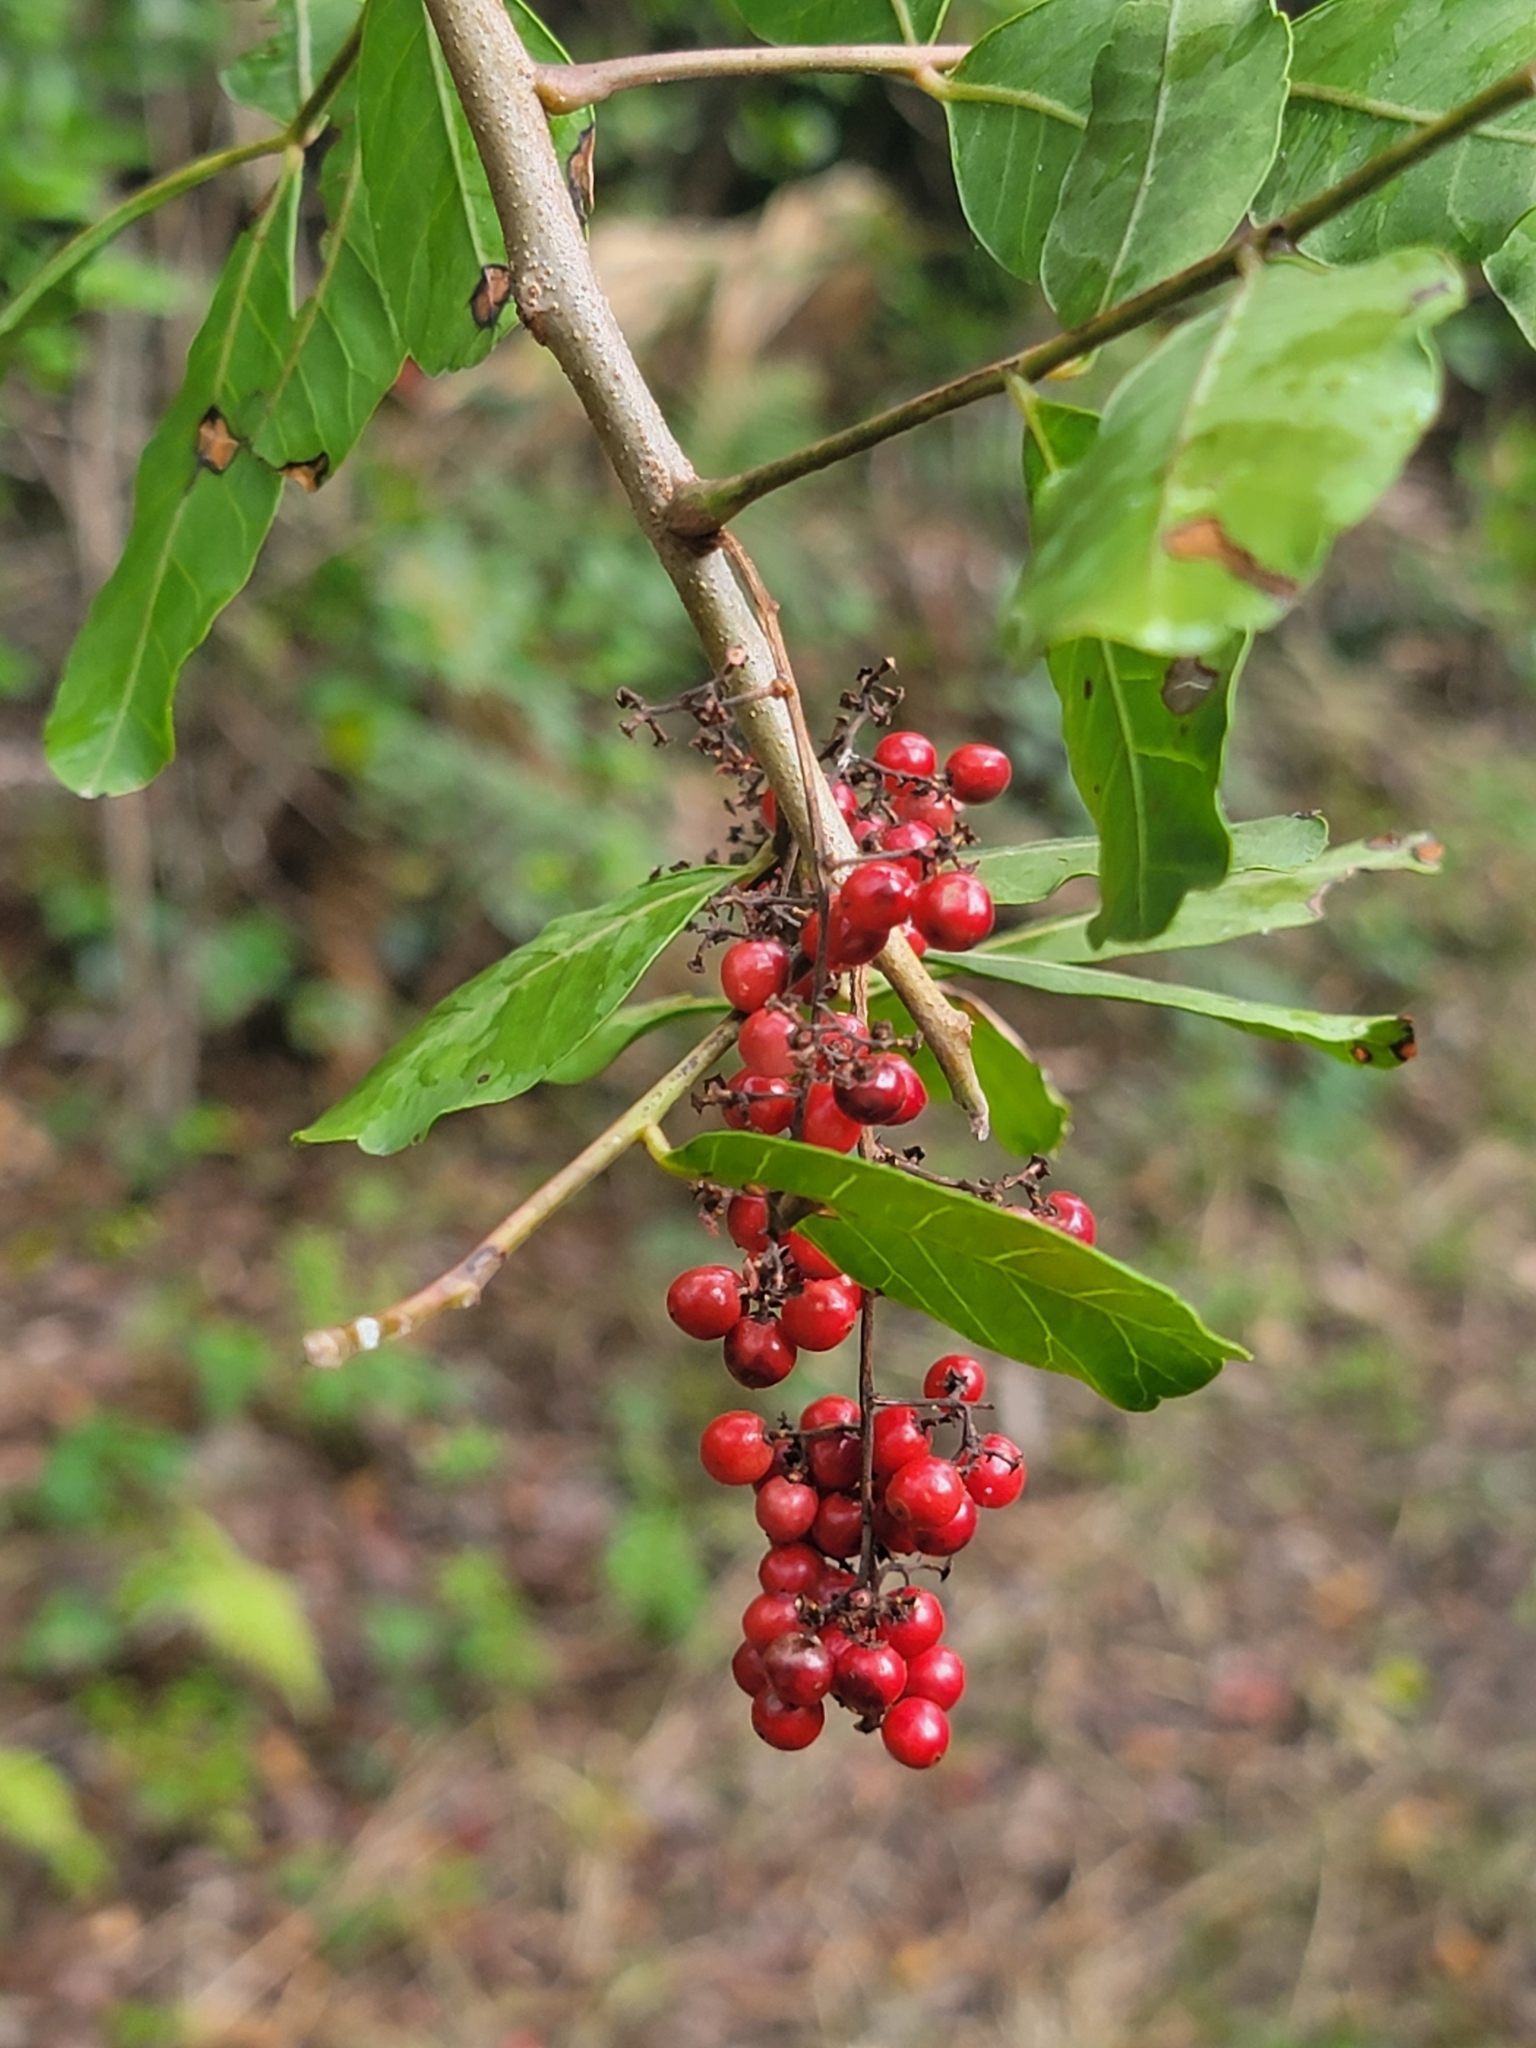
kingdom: Plantae
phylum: Tracheophyta
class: Magnoliopsida
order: Sapindales
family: Anacardiaceae
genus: Schinus
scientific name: Schinus terebinthifolia
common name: Brazilian peppertree
